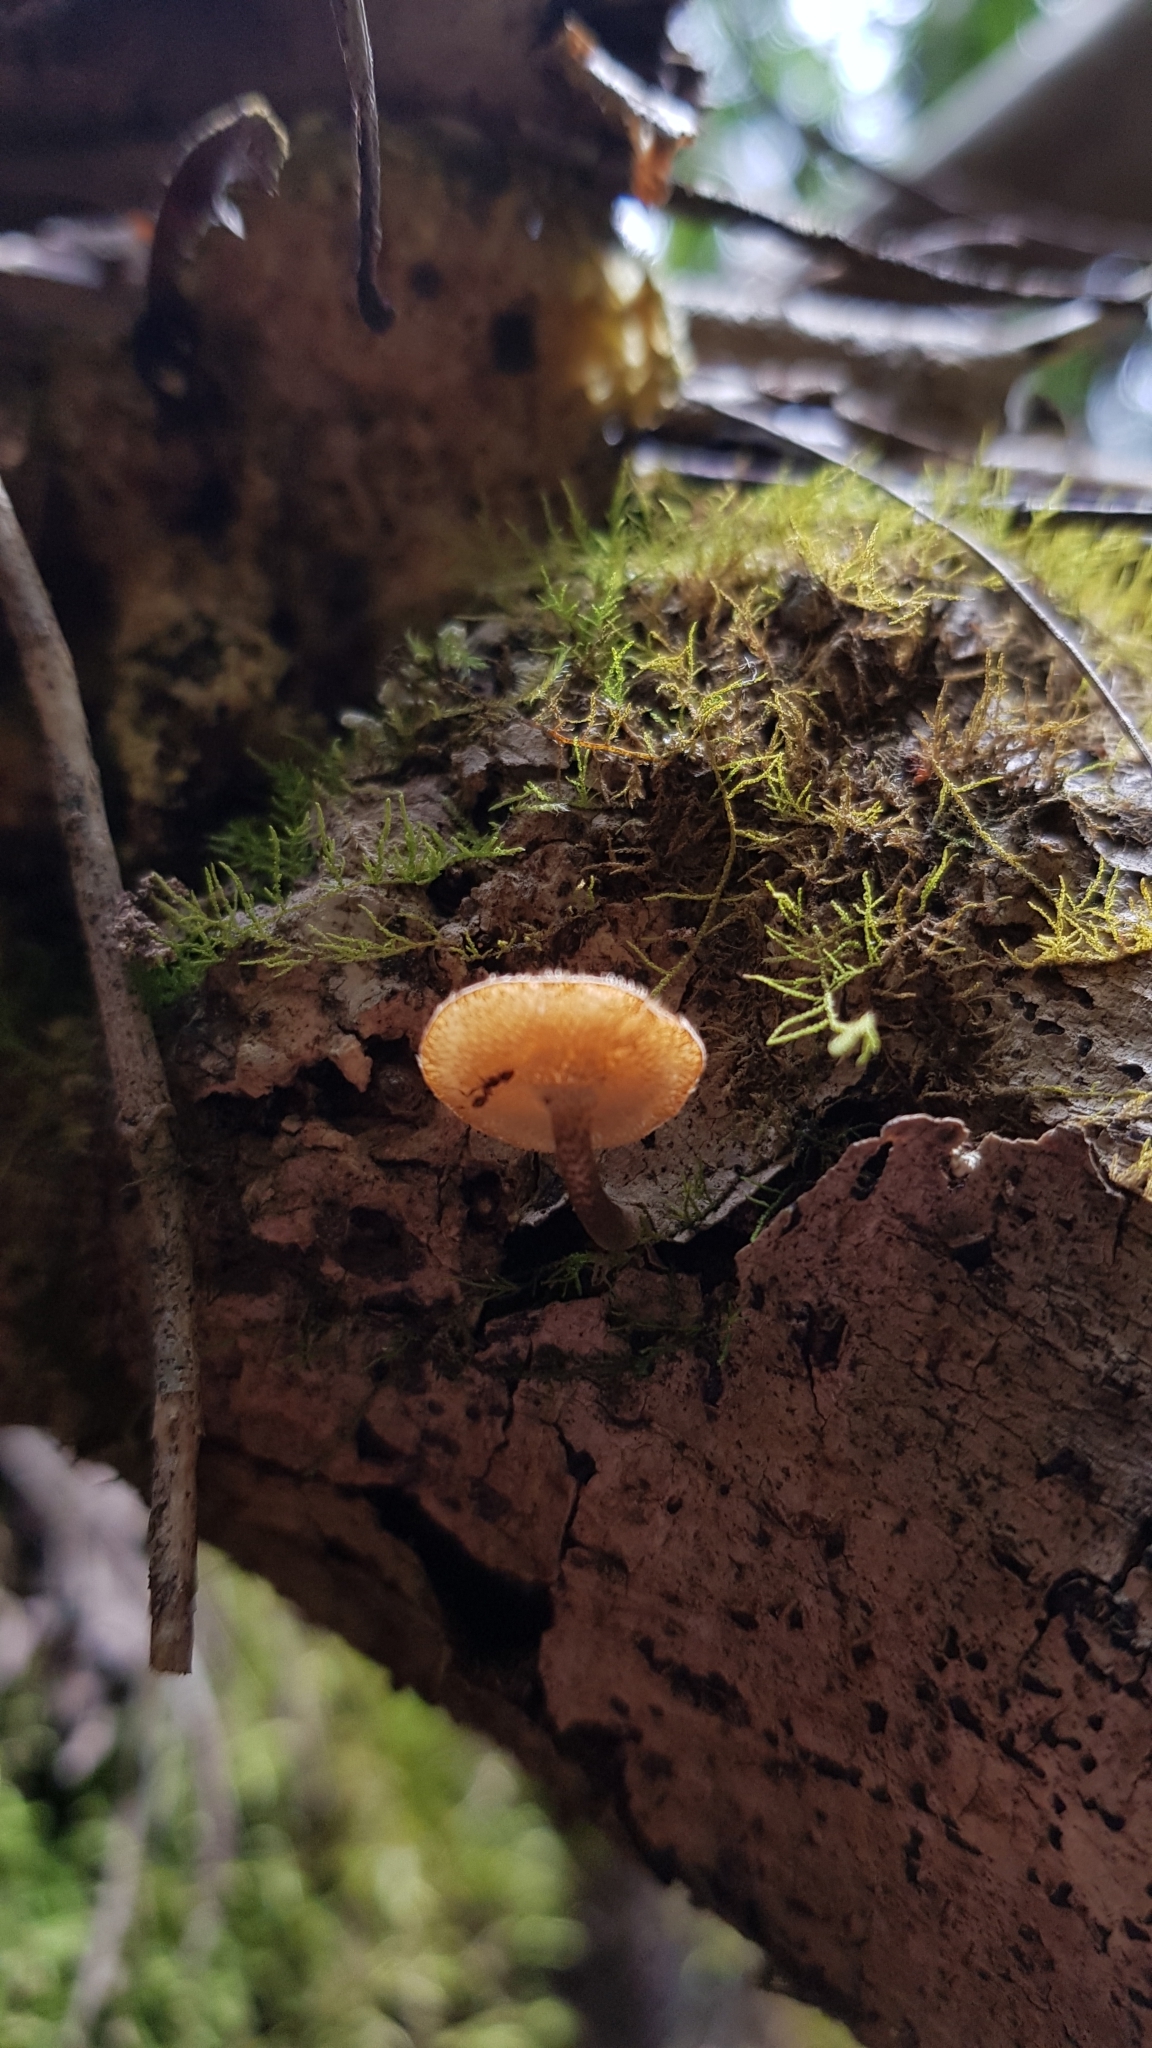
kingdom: Fungi
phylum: Basidiomycota
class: Agaricomycetes
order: Polyporales
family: Polyporaceae
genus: Lentinus
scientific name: Lentinus arcularius
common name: Spring polypore
